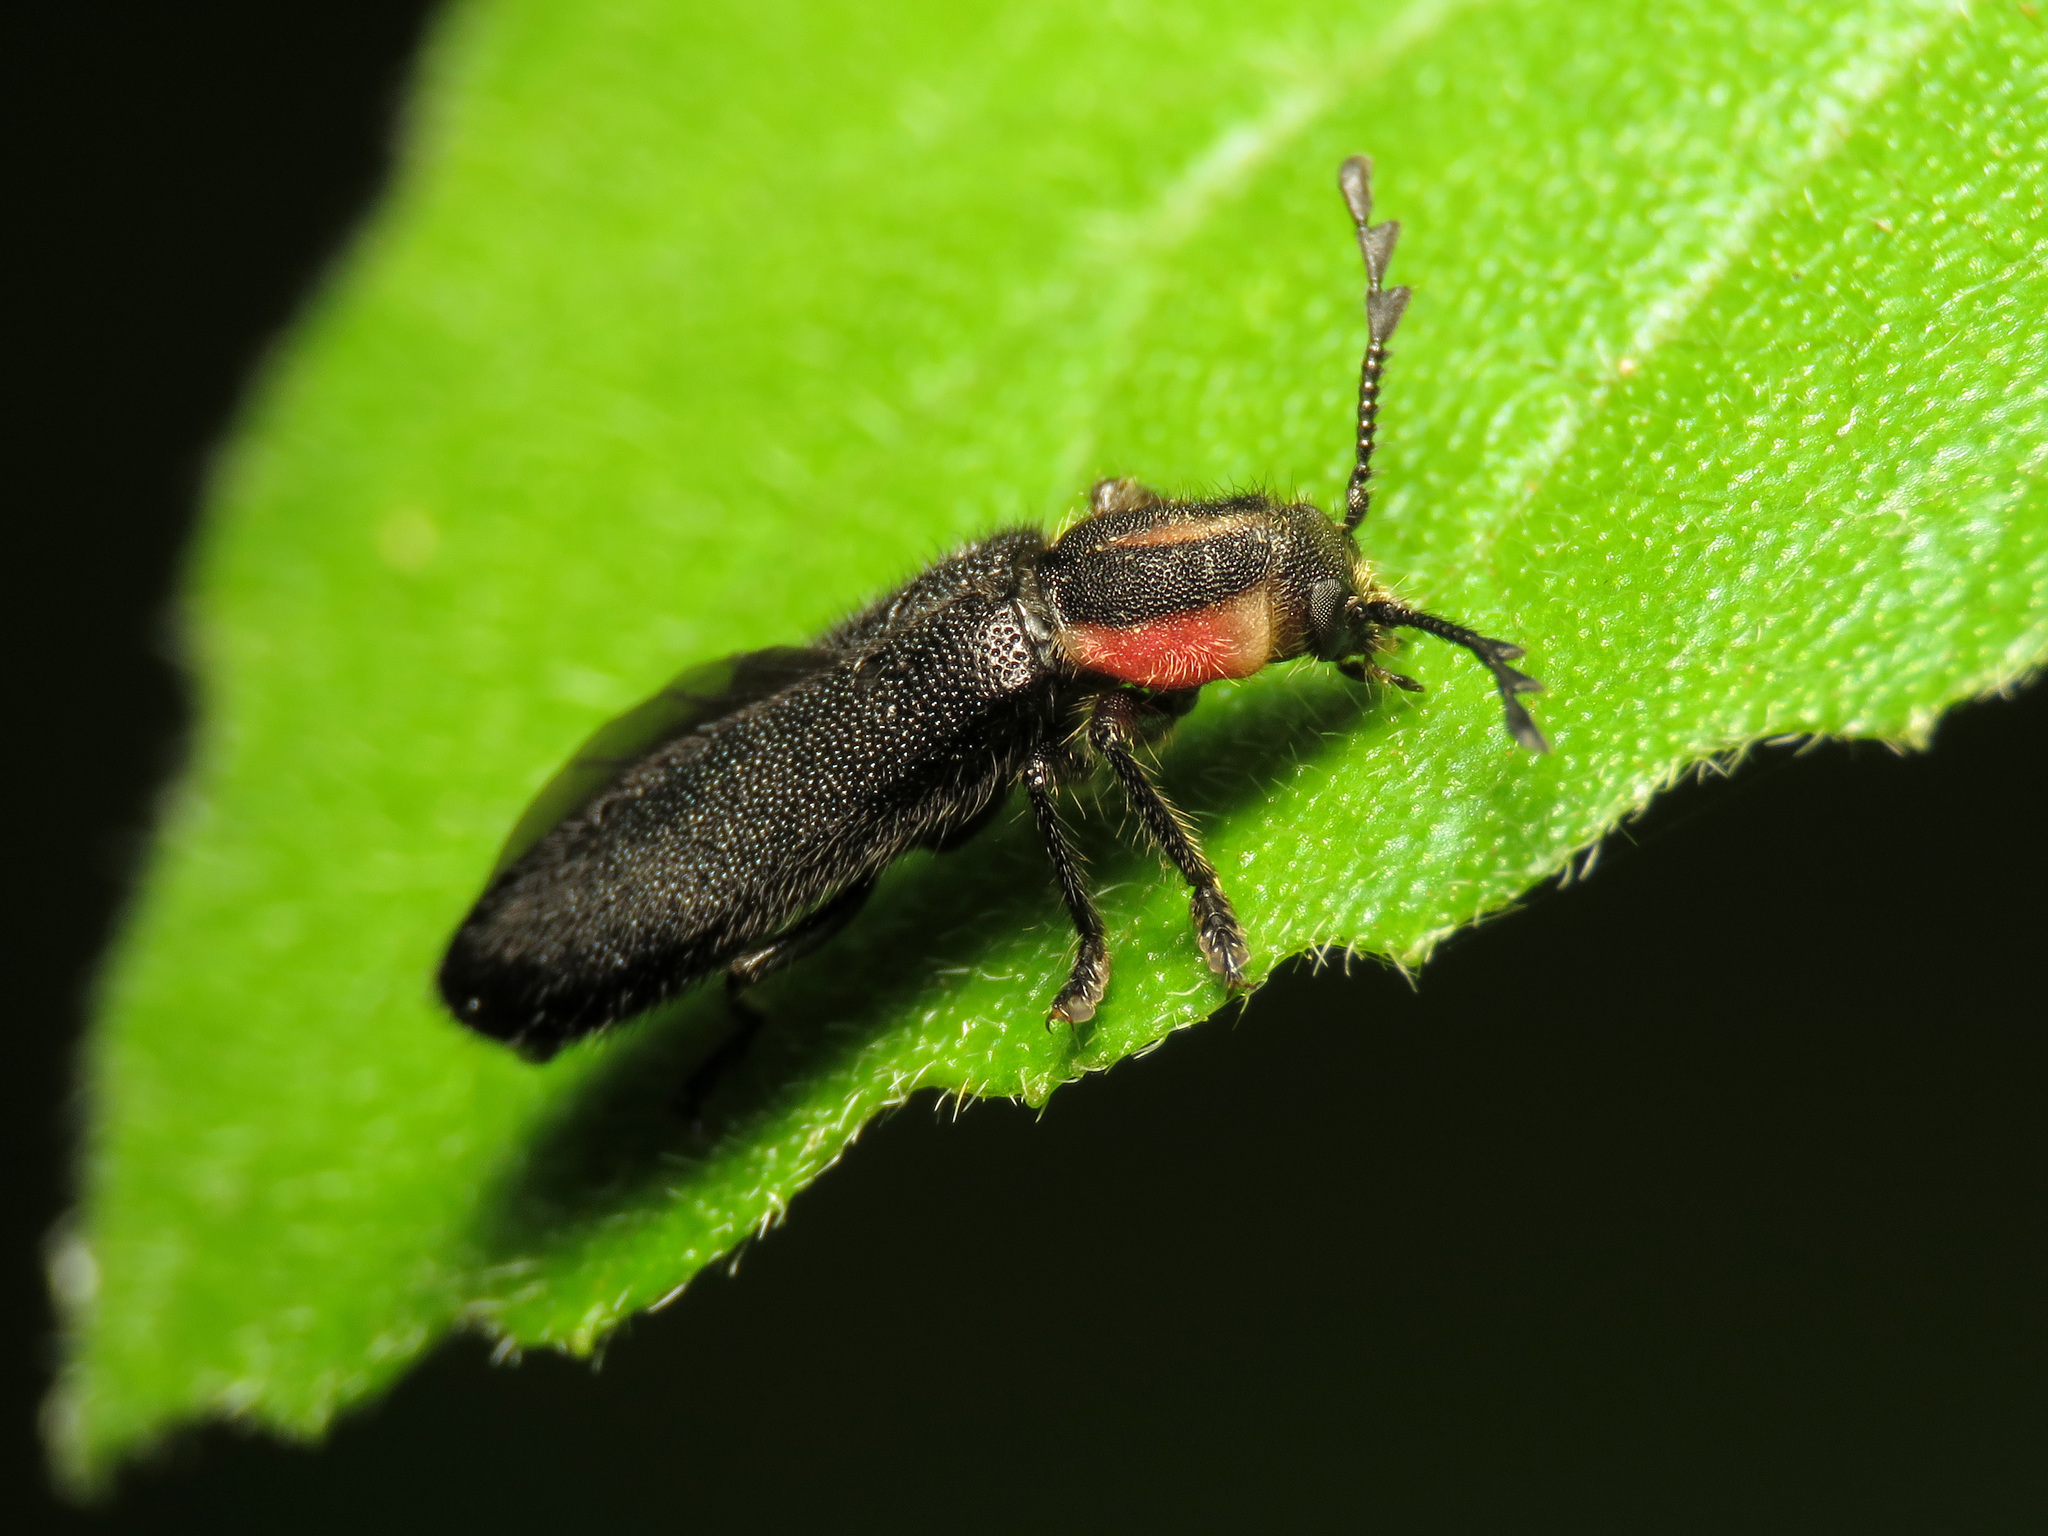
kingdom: Animalia
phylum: Arthropoda
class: Insecta
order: Coleoptera
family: Cleridae
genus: Chariessa
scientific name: Chariessa pilosa
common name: Pilose checkered beetle
